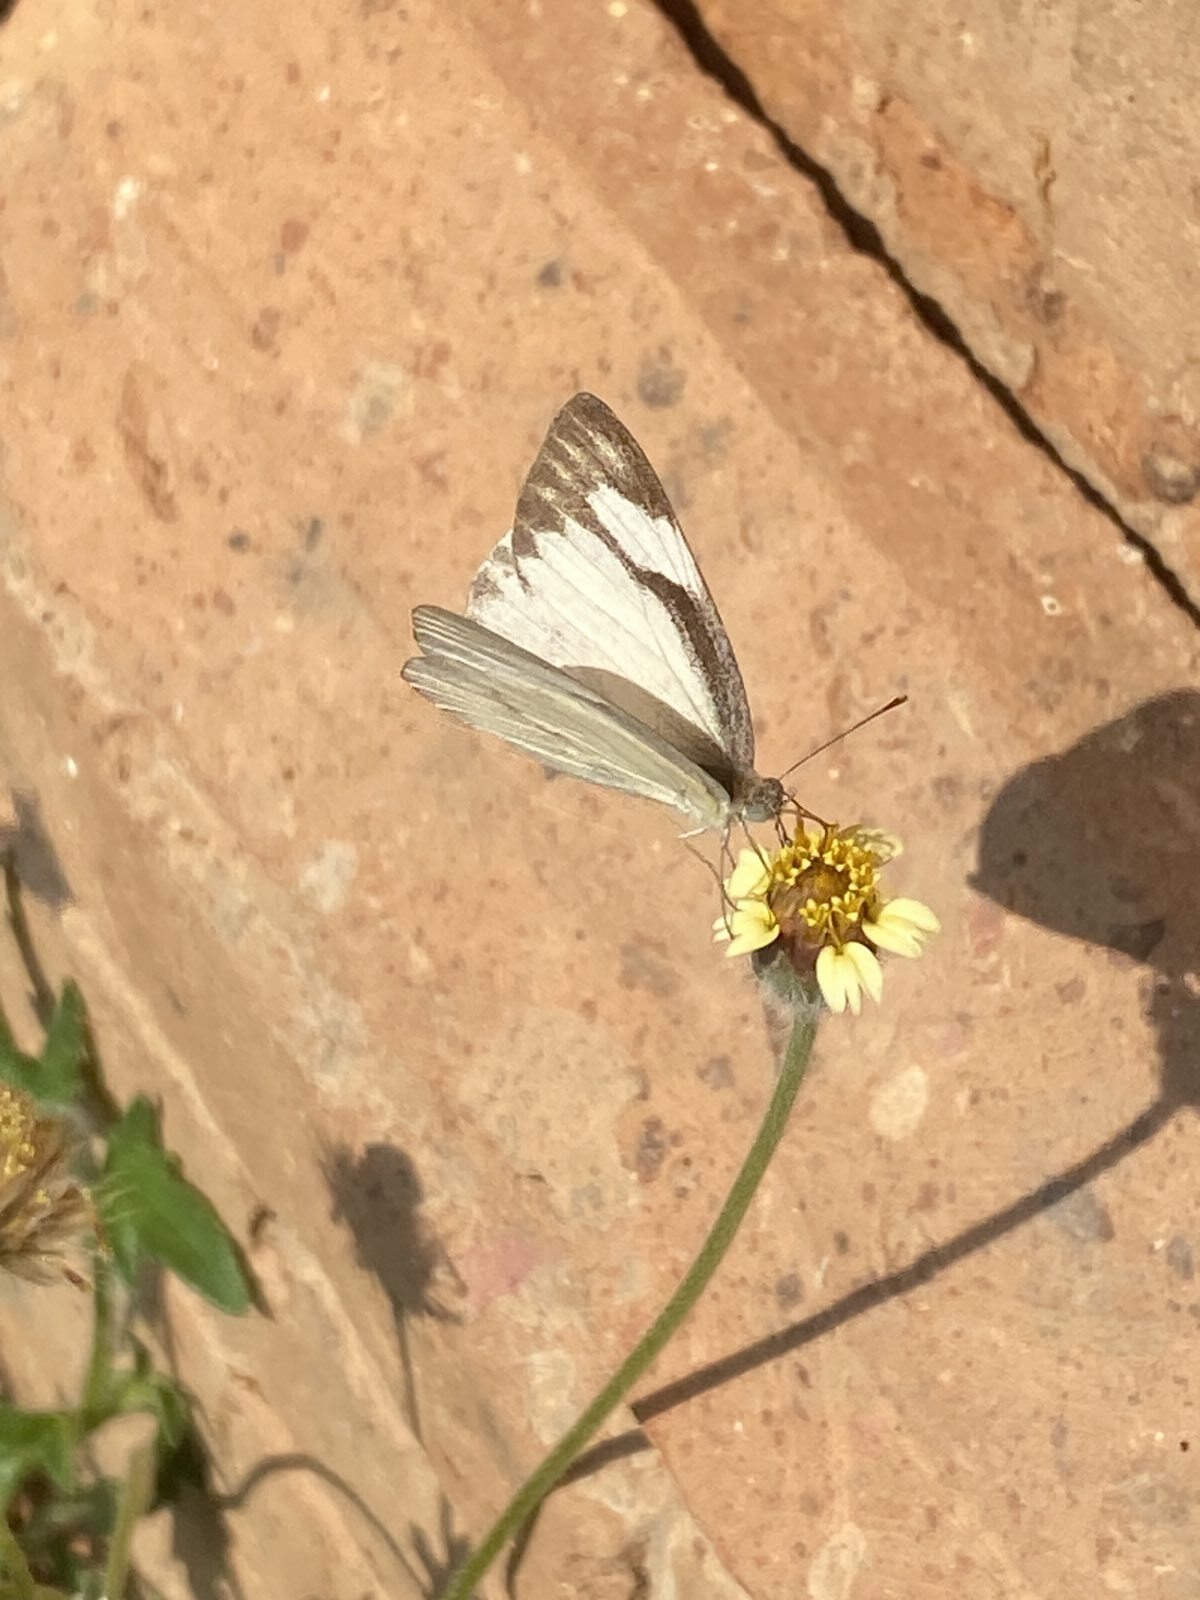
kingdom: Animalia
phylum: Arthropoda
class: Insecta
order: Lepidoptera
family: Pieridae
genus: Appias
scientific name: Appias libythea
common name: Striped albatross
